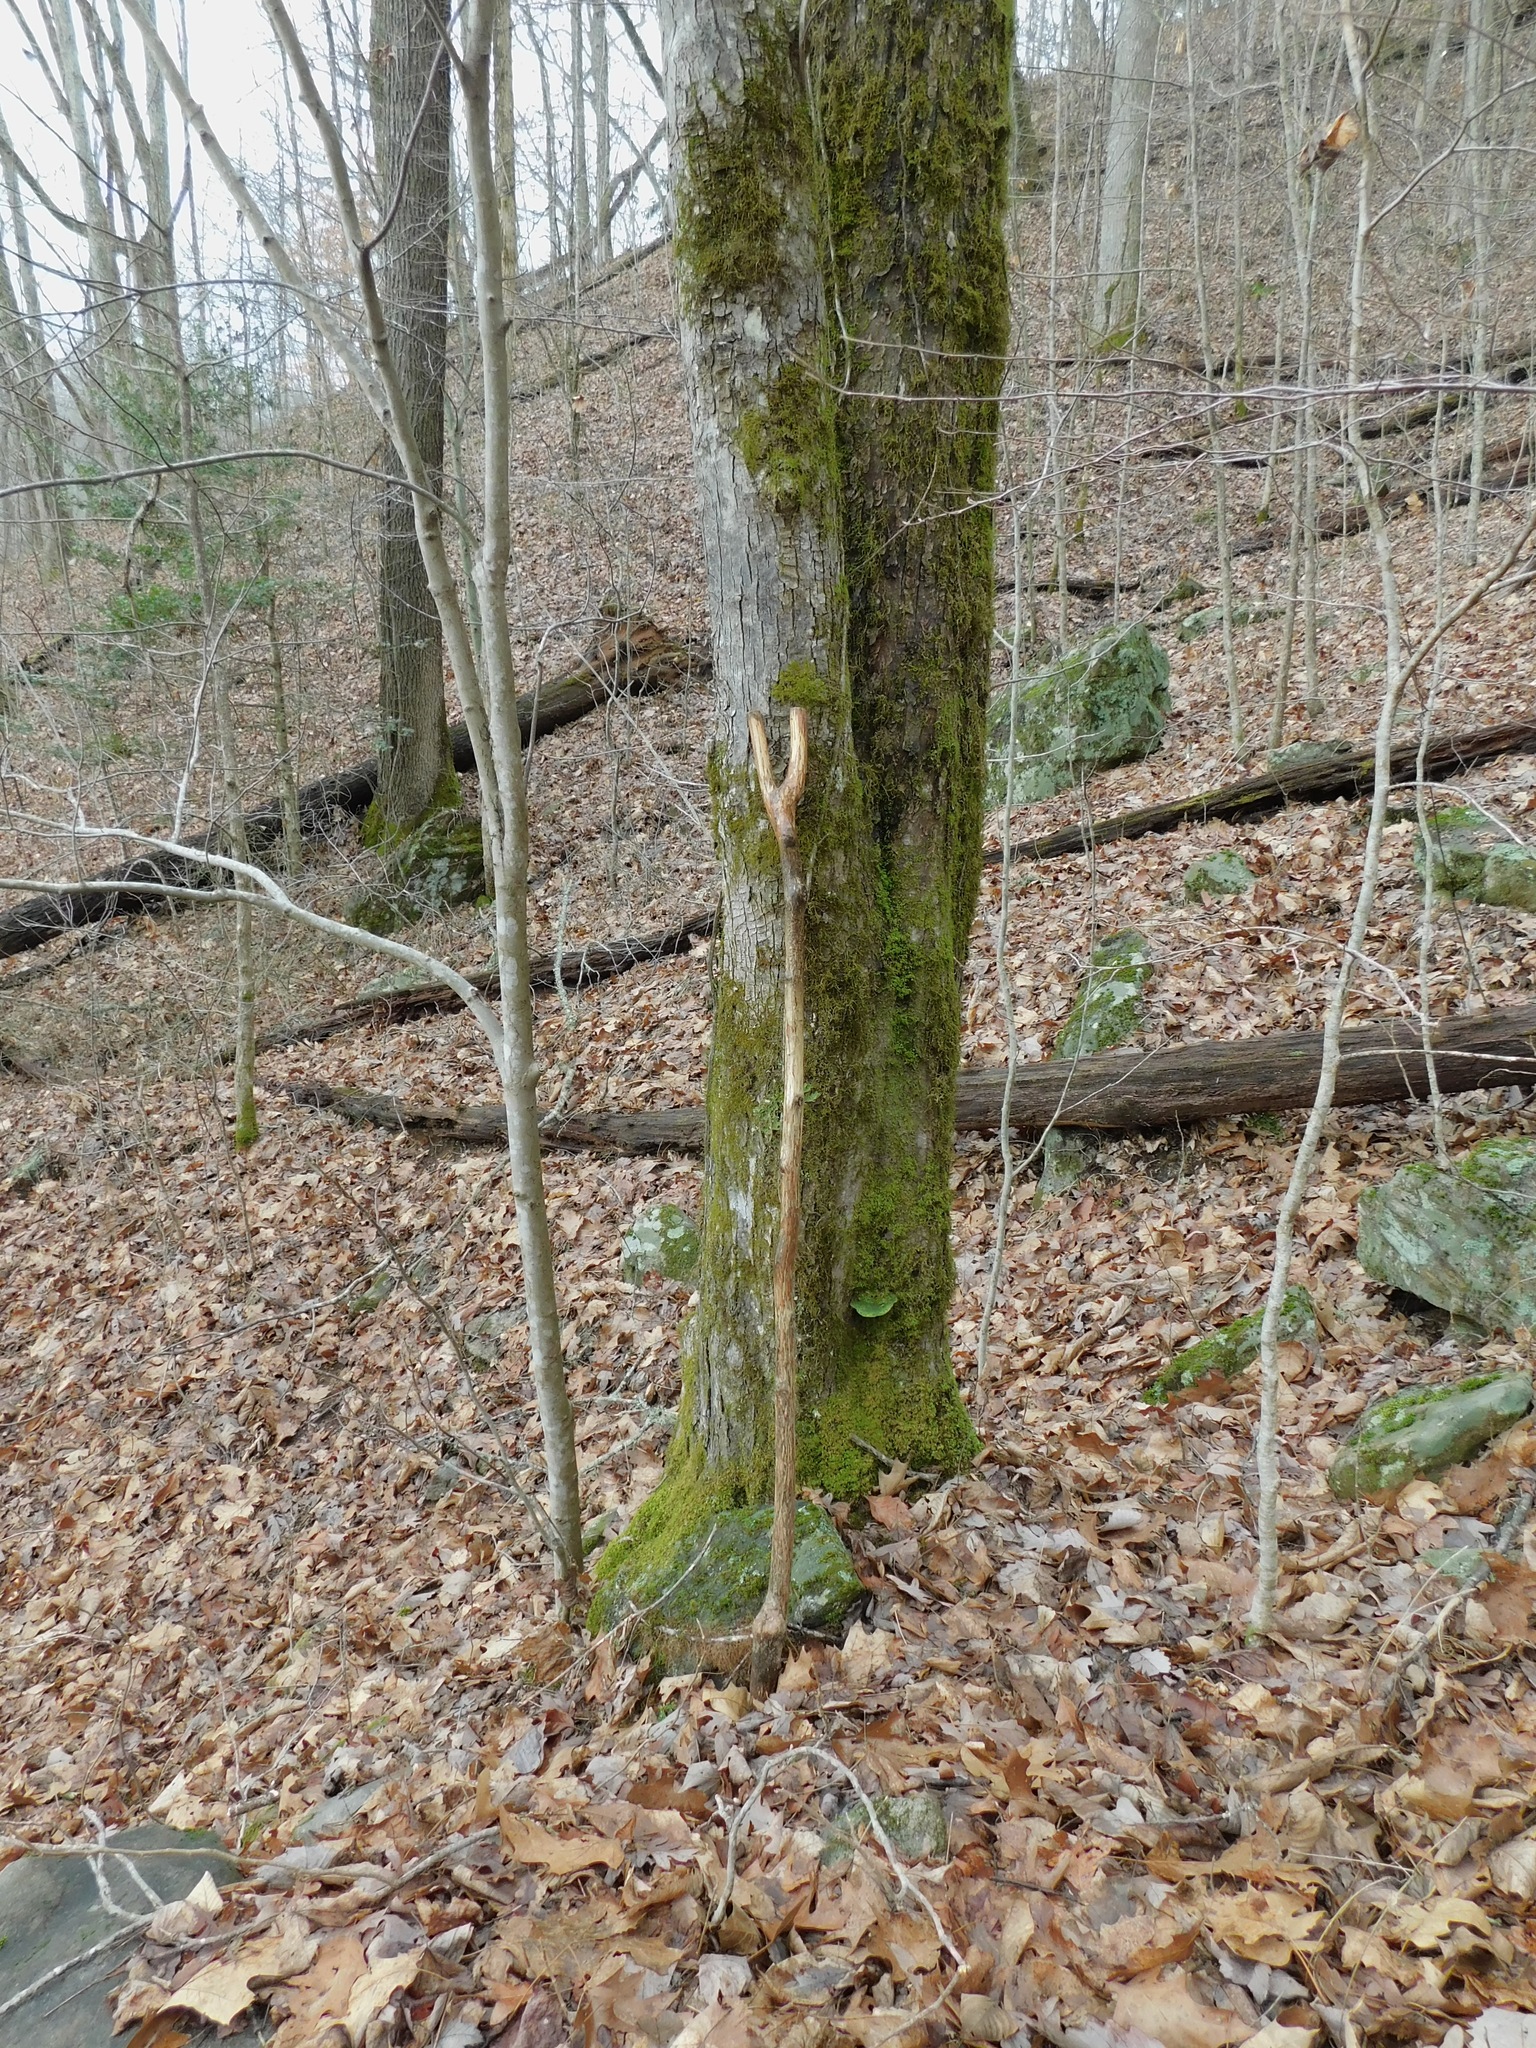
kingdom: Plantae
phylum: Tracheophyta
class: Magnoliopsida
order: Sapindales
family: Sapindaceae
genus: Acer
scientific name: Acer freemanii
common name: Freeman maple
